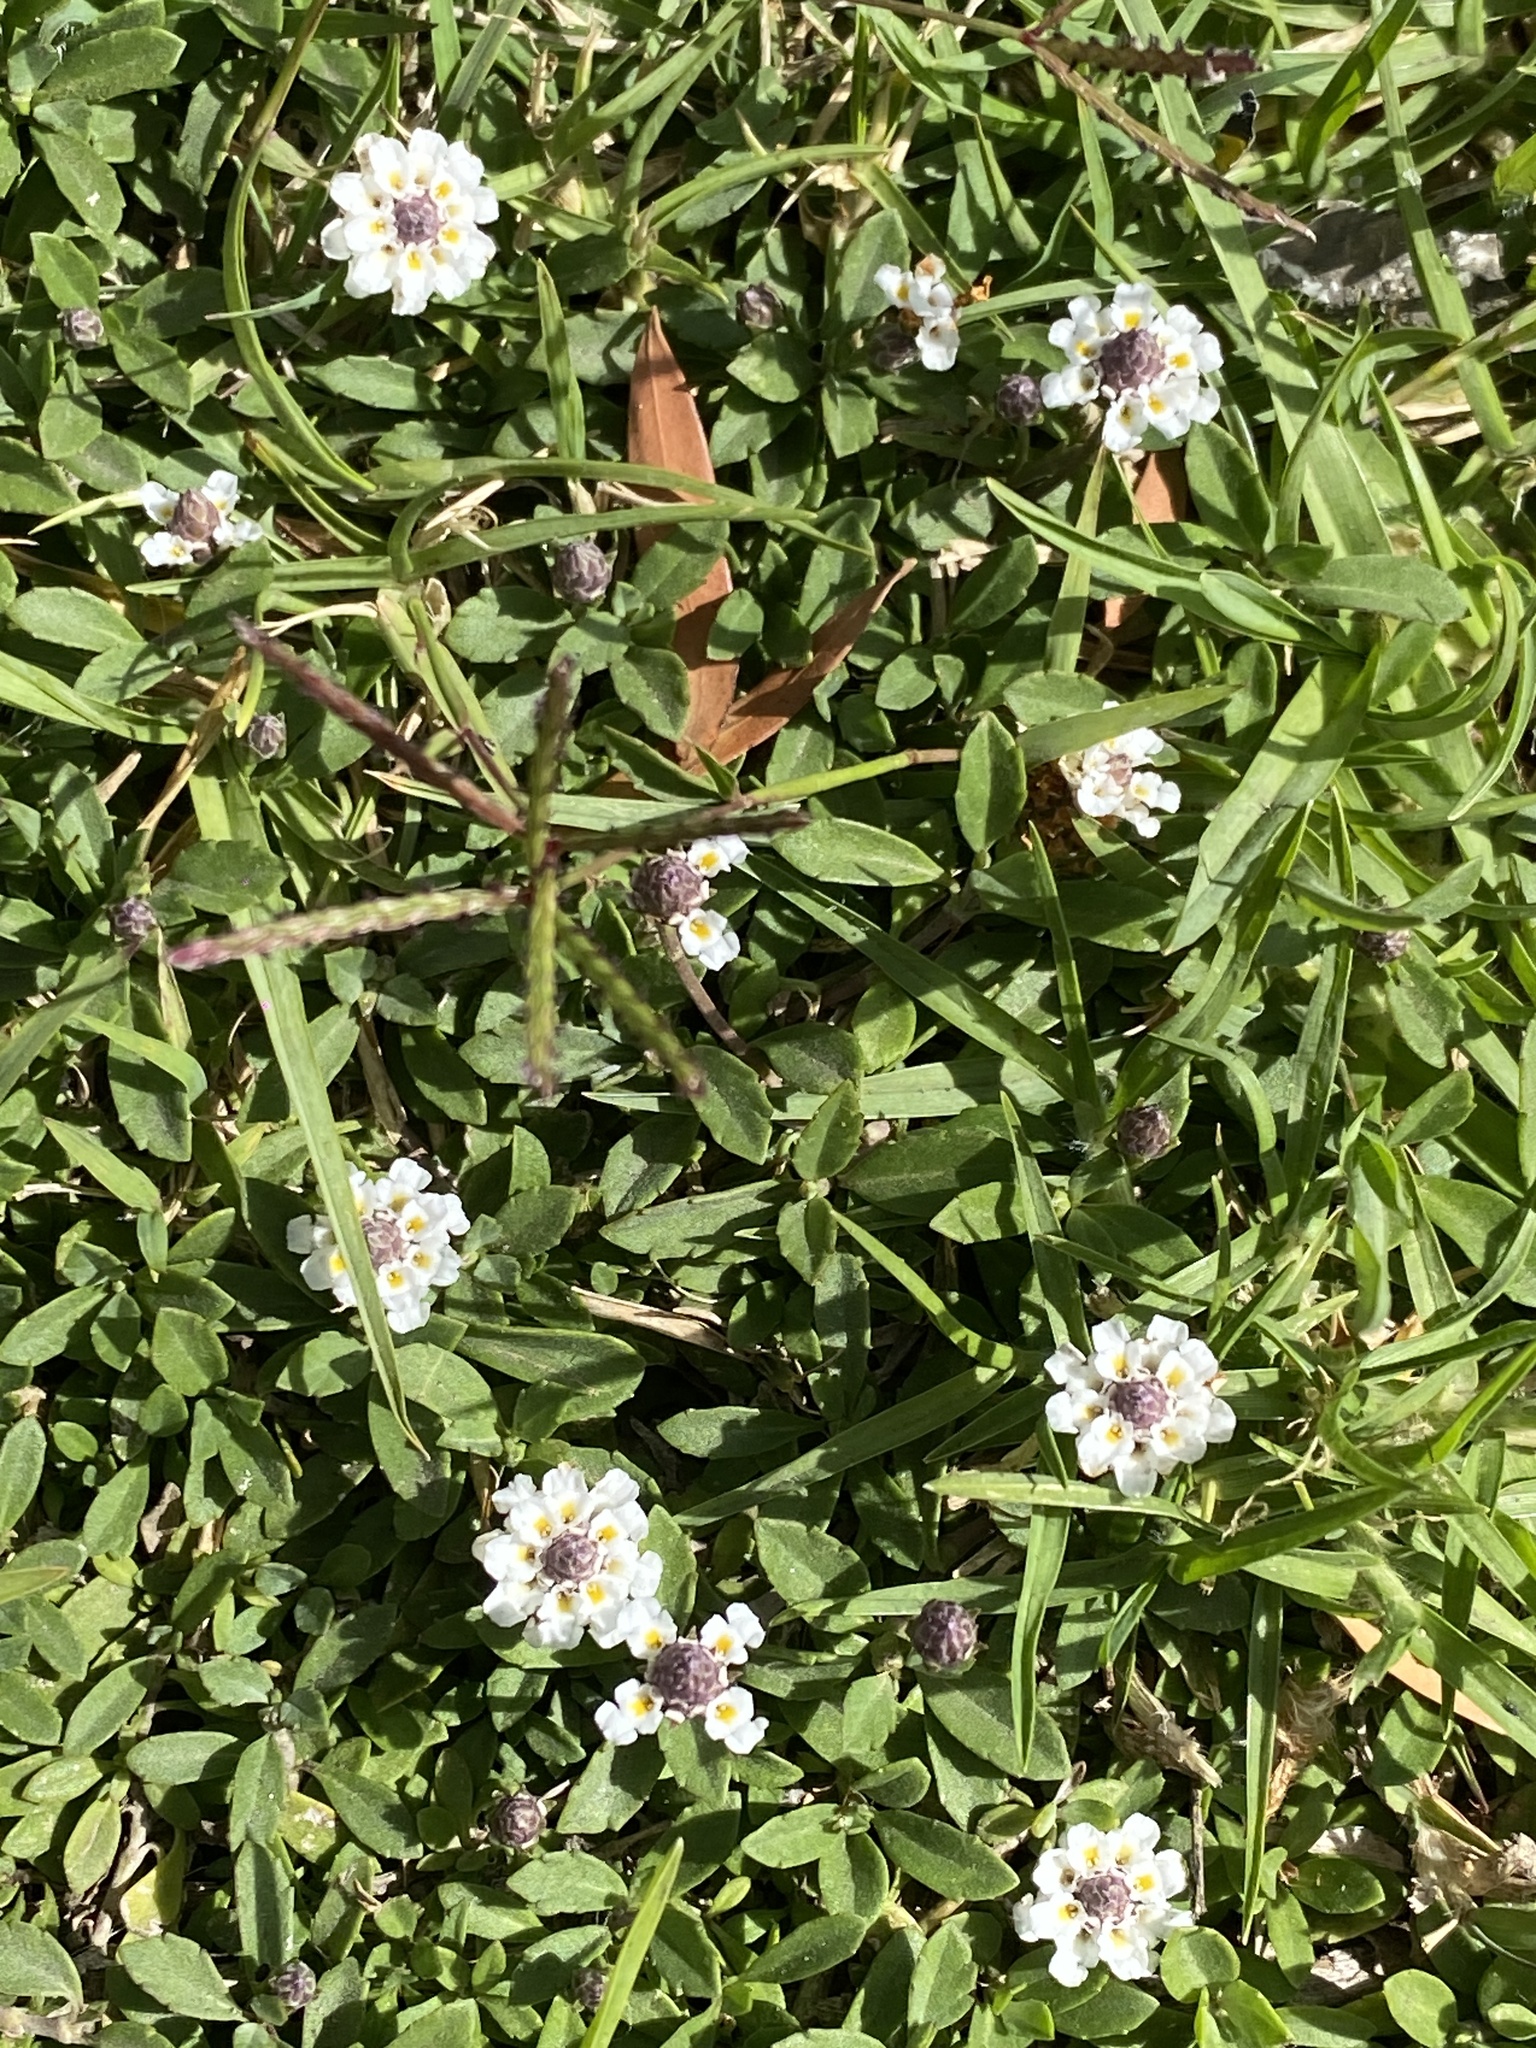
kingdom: Plantae
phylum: Tracheophyta
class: Magnoliopsida
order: Lamiales
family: Verbenaceae
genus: Phyla
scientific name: Phyla nodiflora
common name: Frogfruit
